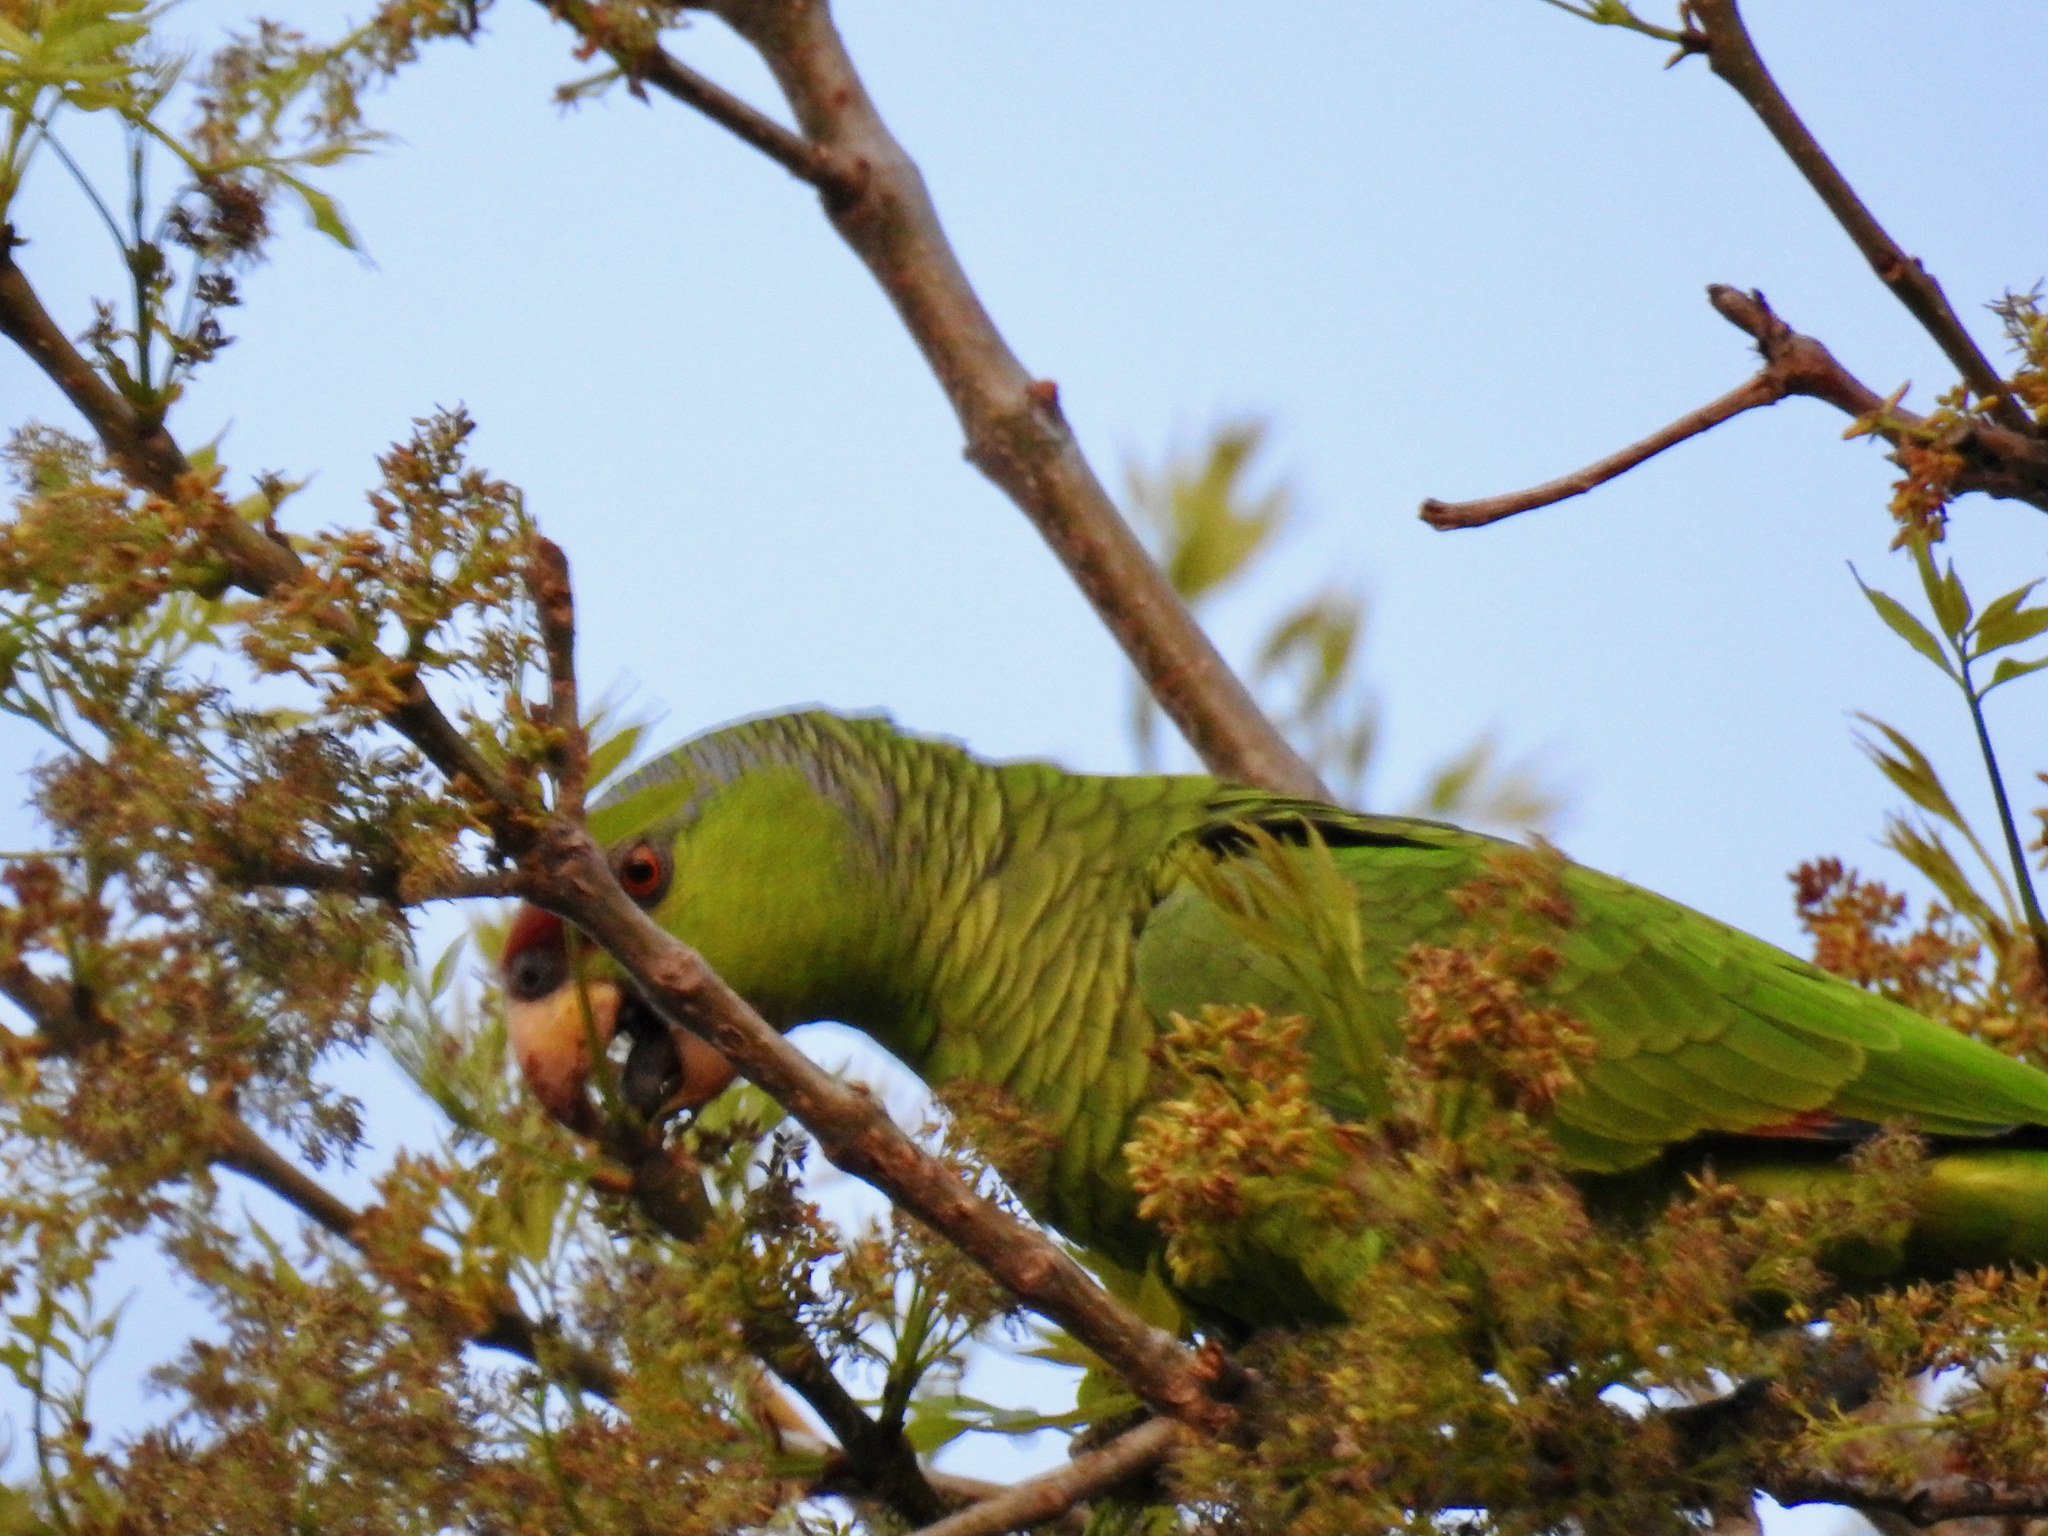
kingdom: Animalia
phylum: Chordata
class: Aves
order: Psittaciformes
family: Psittacidae
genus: Amazona
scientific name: Amazona finschi
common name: Lilac-crowned amazon
